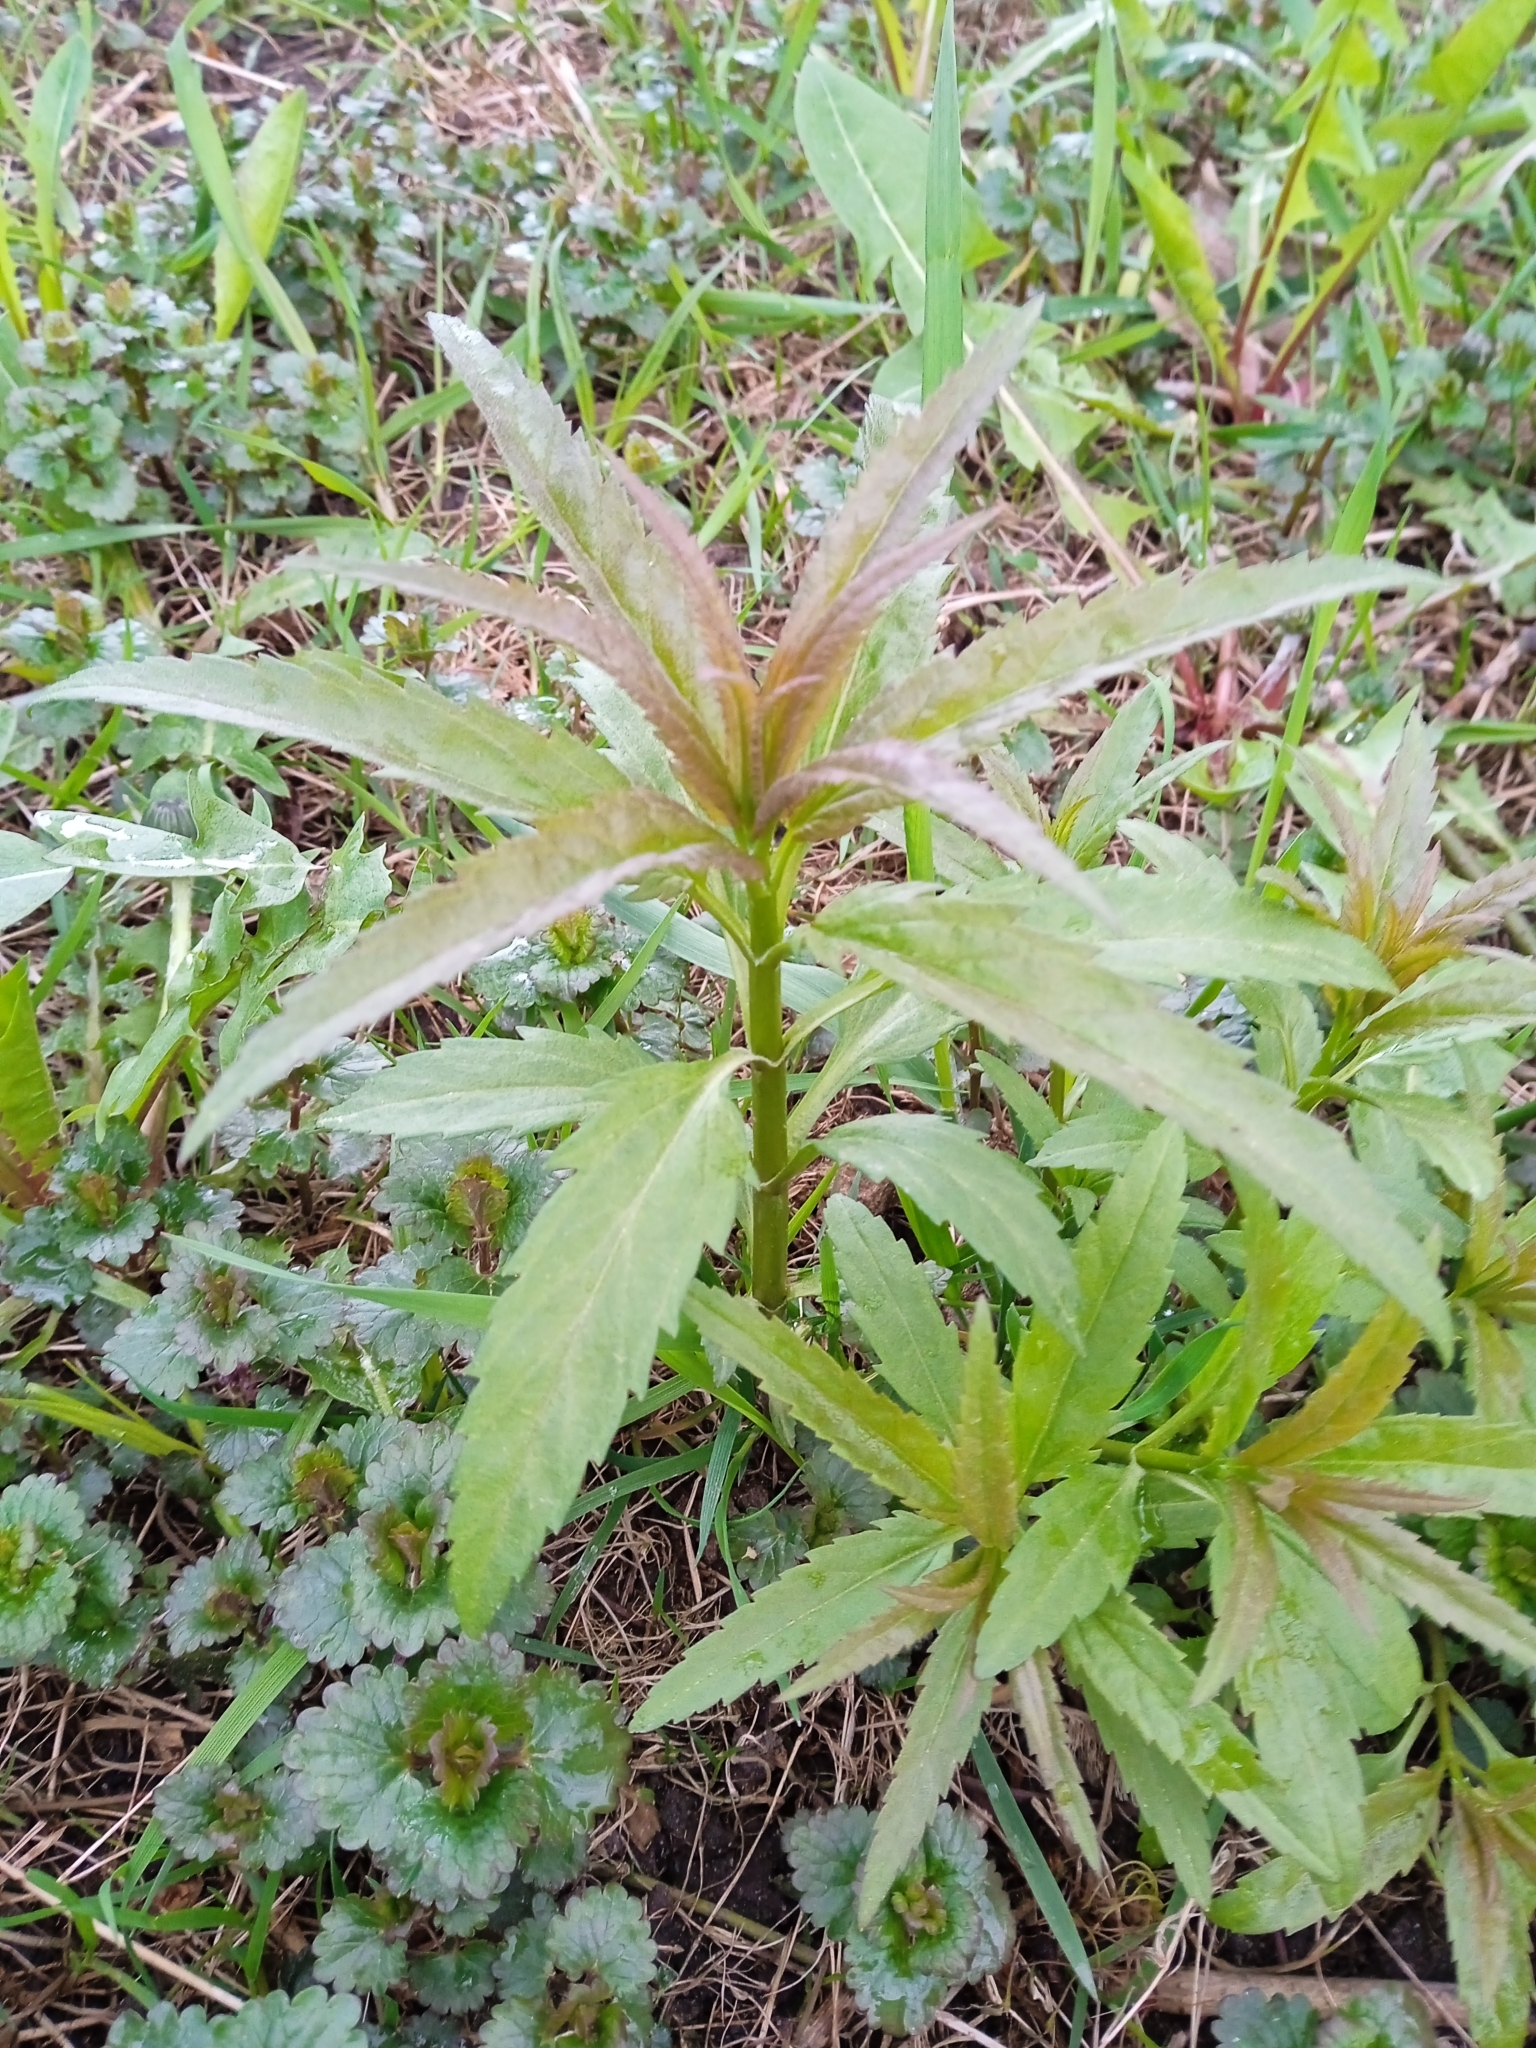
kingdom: Plantae
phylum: Tracheophyta
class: Magnoliopsida
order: Lamiales
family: Plantaginaceae
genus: Veronica
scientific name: Veronica longifolia
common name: Garden speedwell
